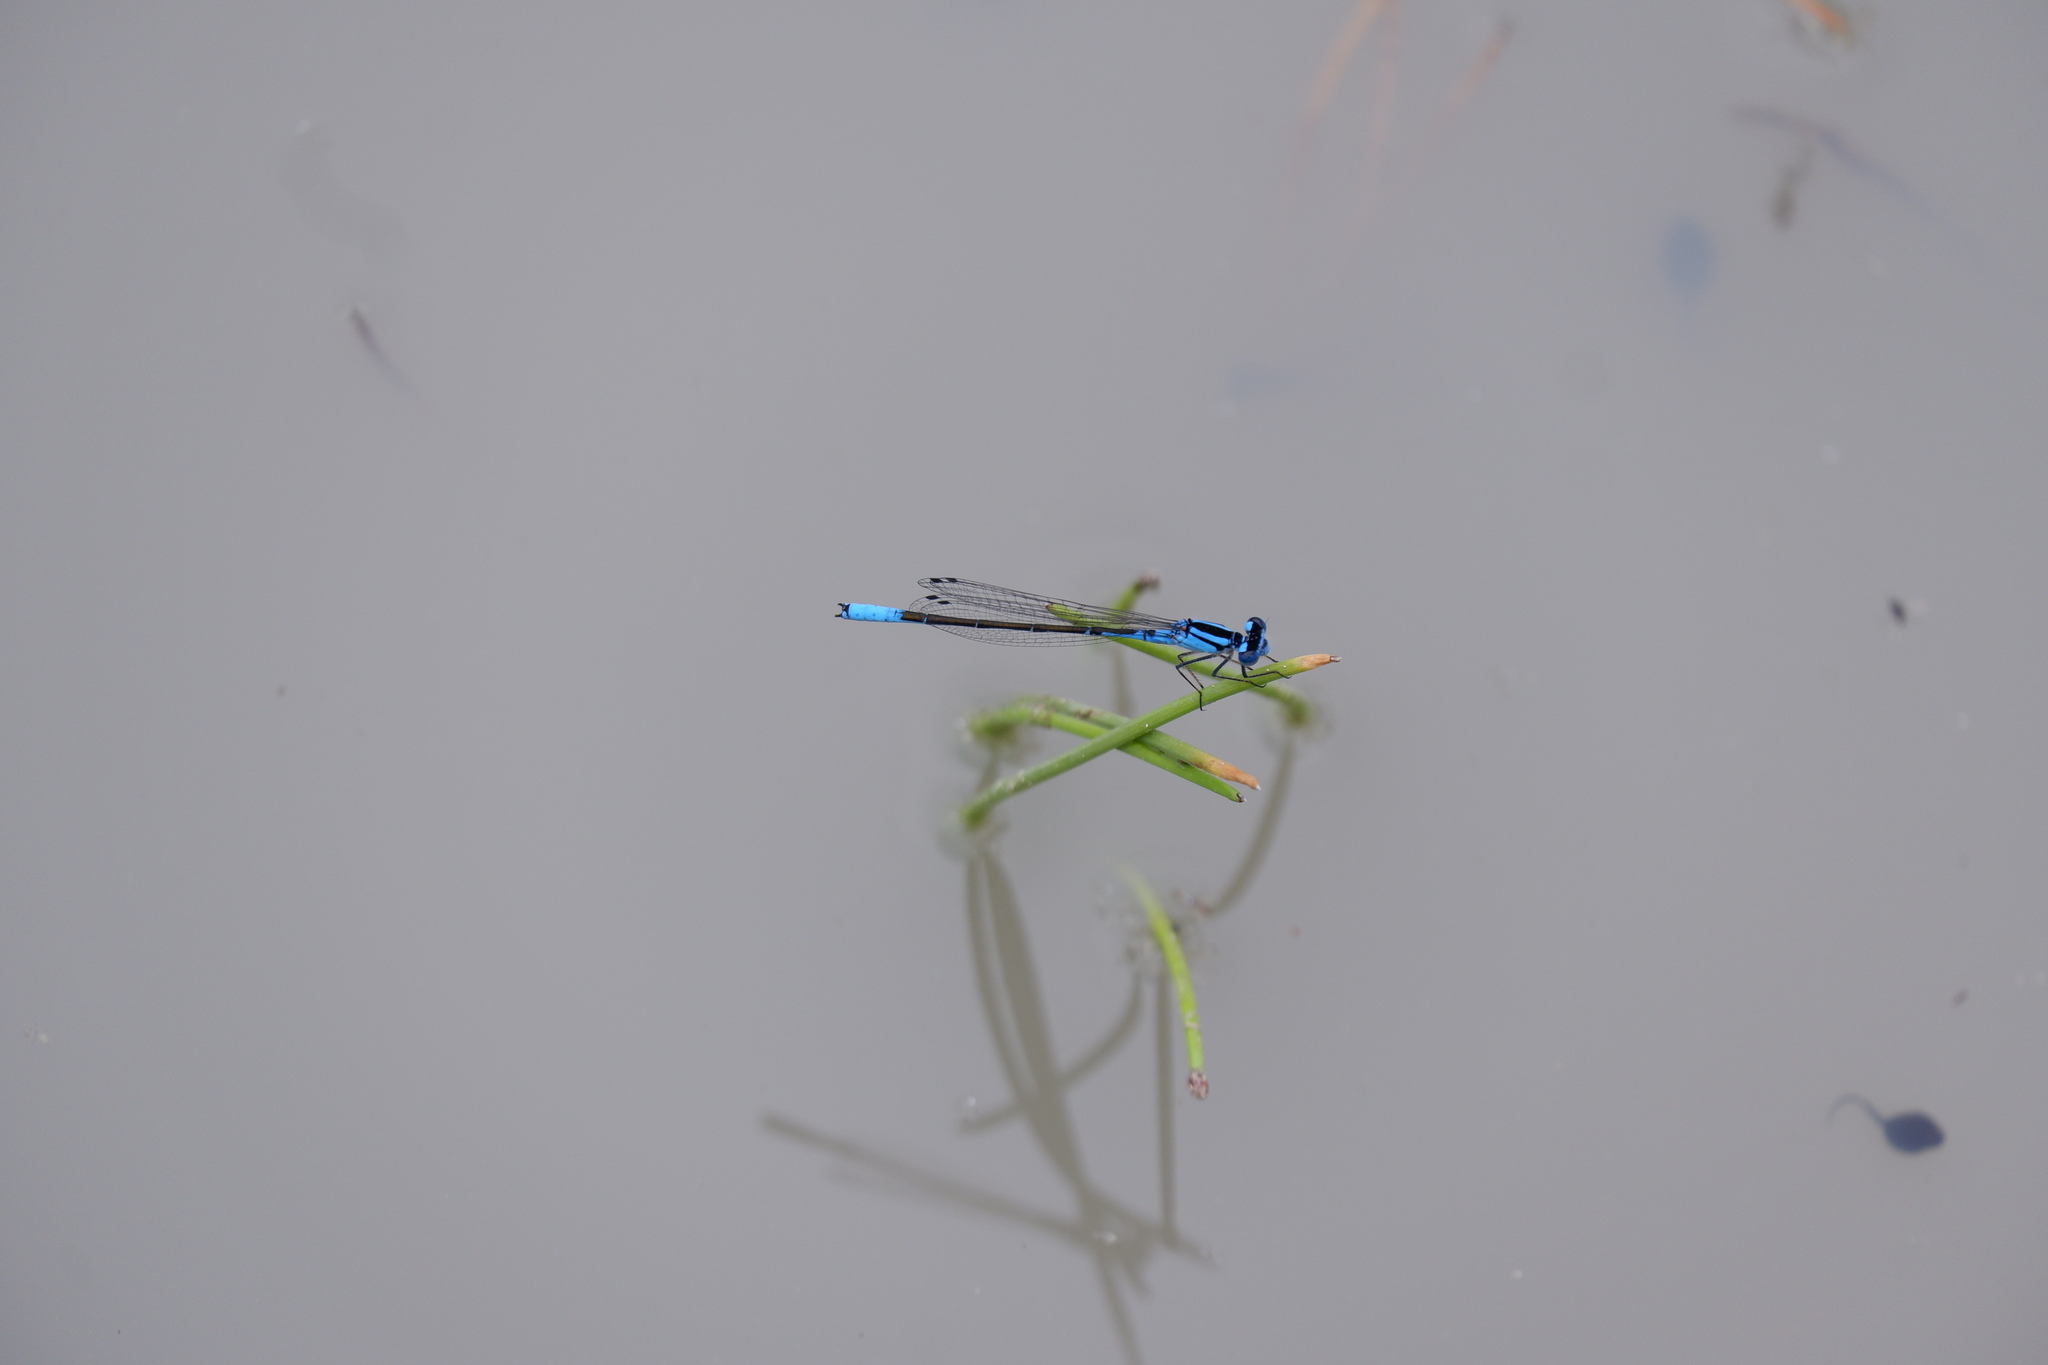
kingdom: Animalia
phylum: Arthropoda
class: Insecta
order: Odonata
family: Coenagrionidae
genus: Enallagma
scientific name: Enallagma aspersum
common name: Azure bluet
